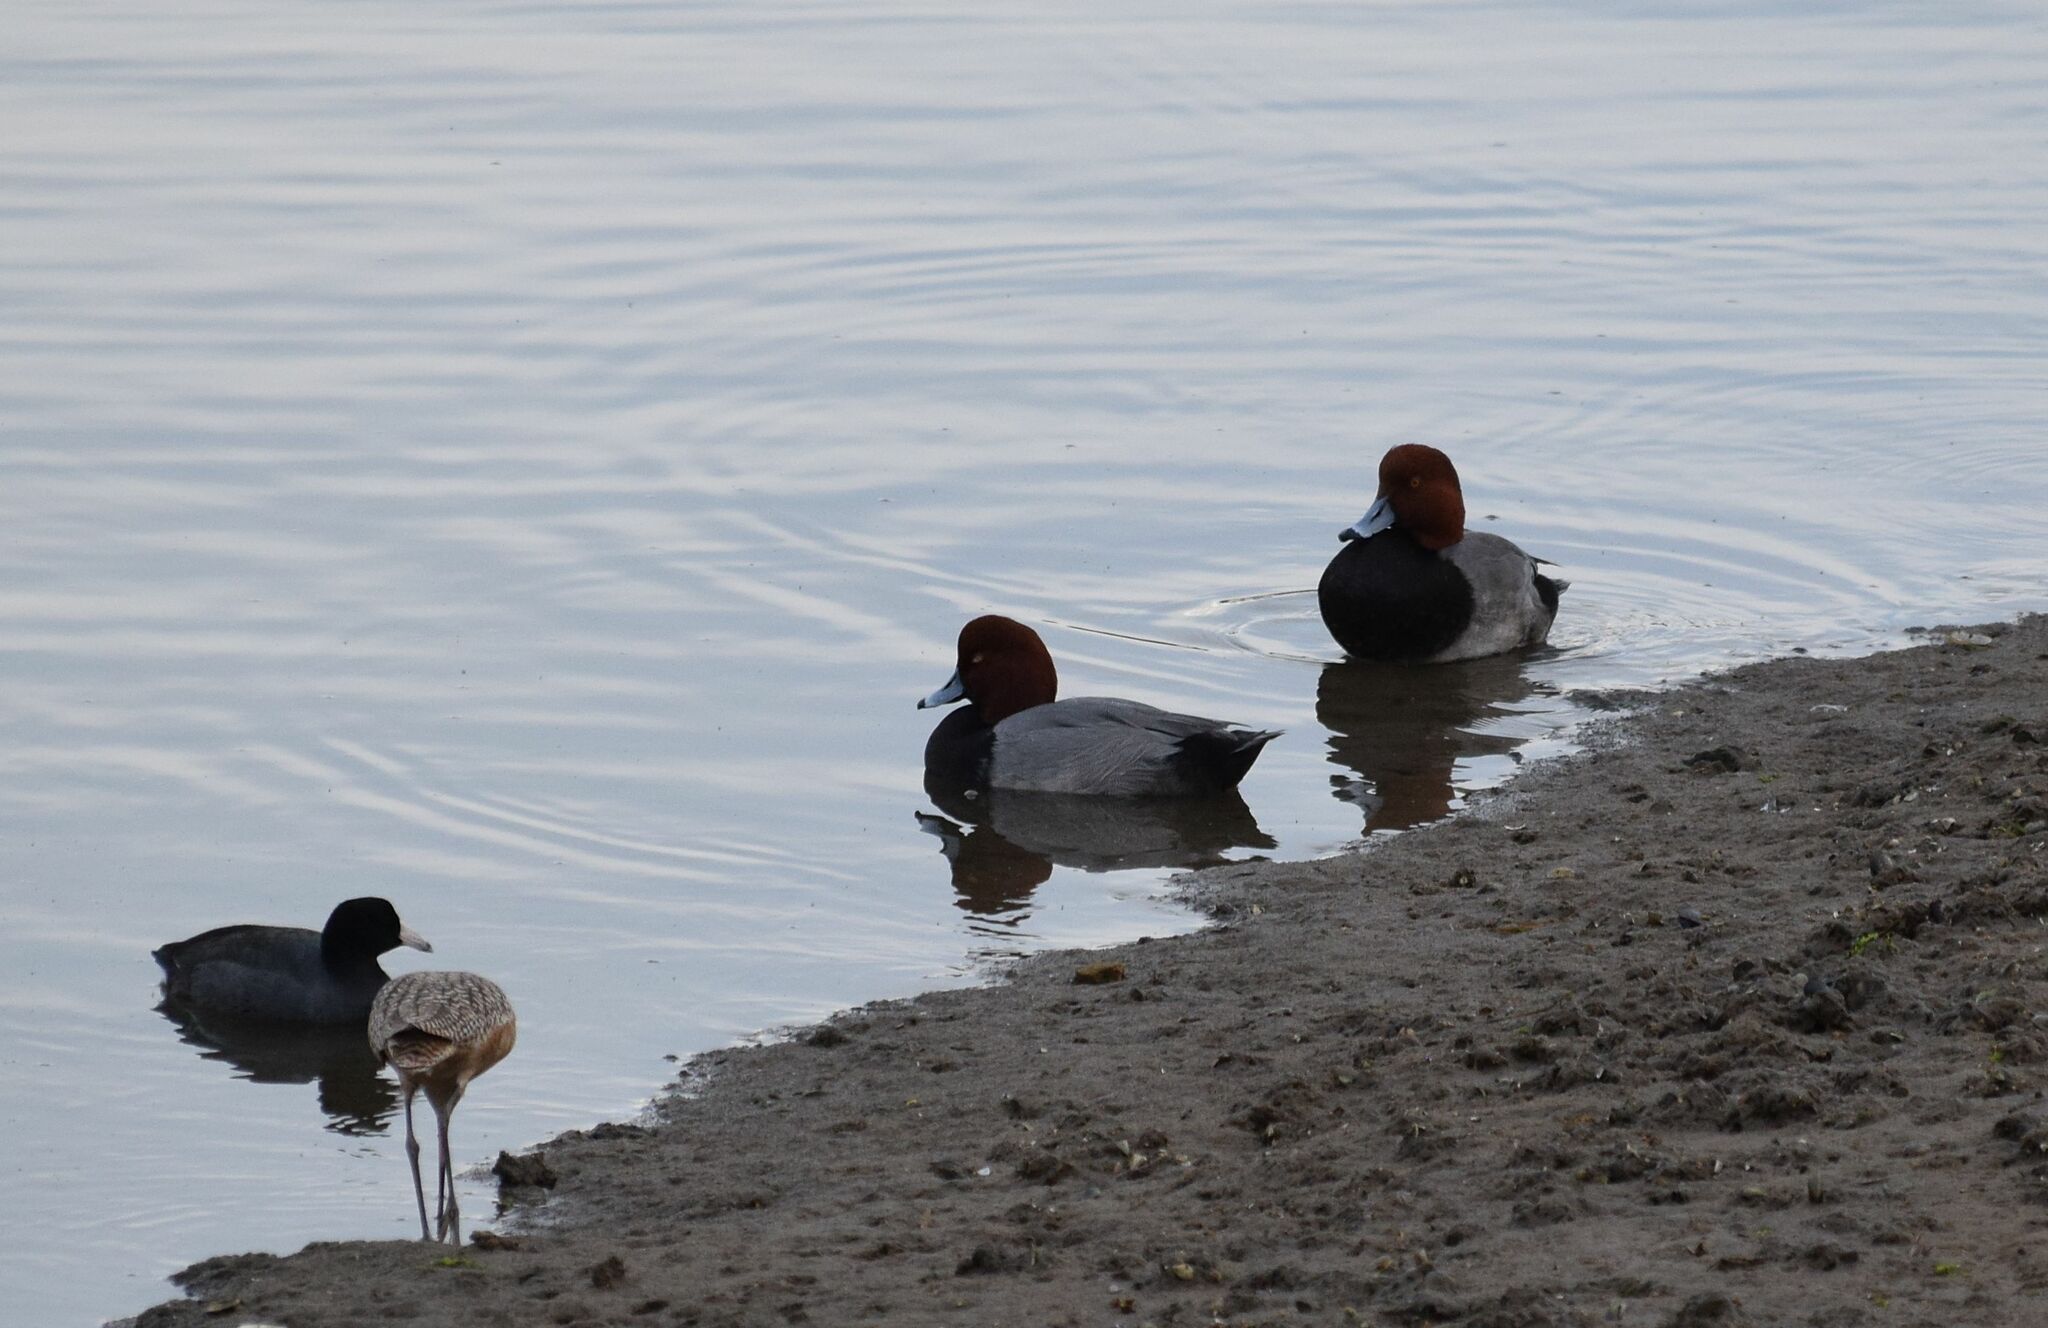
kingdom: Animalia
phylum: Chordata
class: Aves
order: Anseriformes
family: Anatidae
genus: Aythya
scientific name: Aythya americana
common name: Redhead
